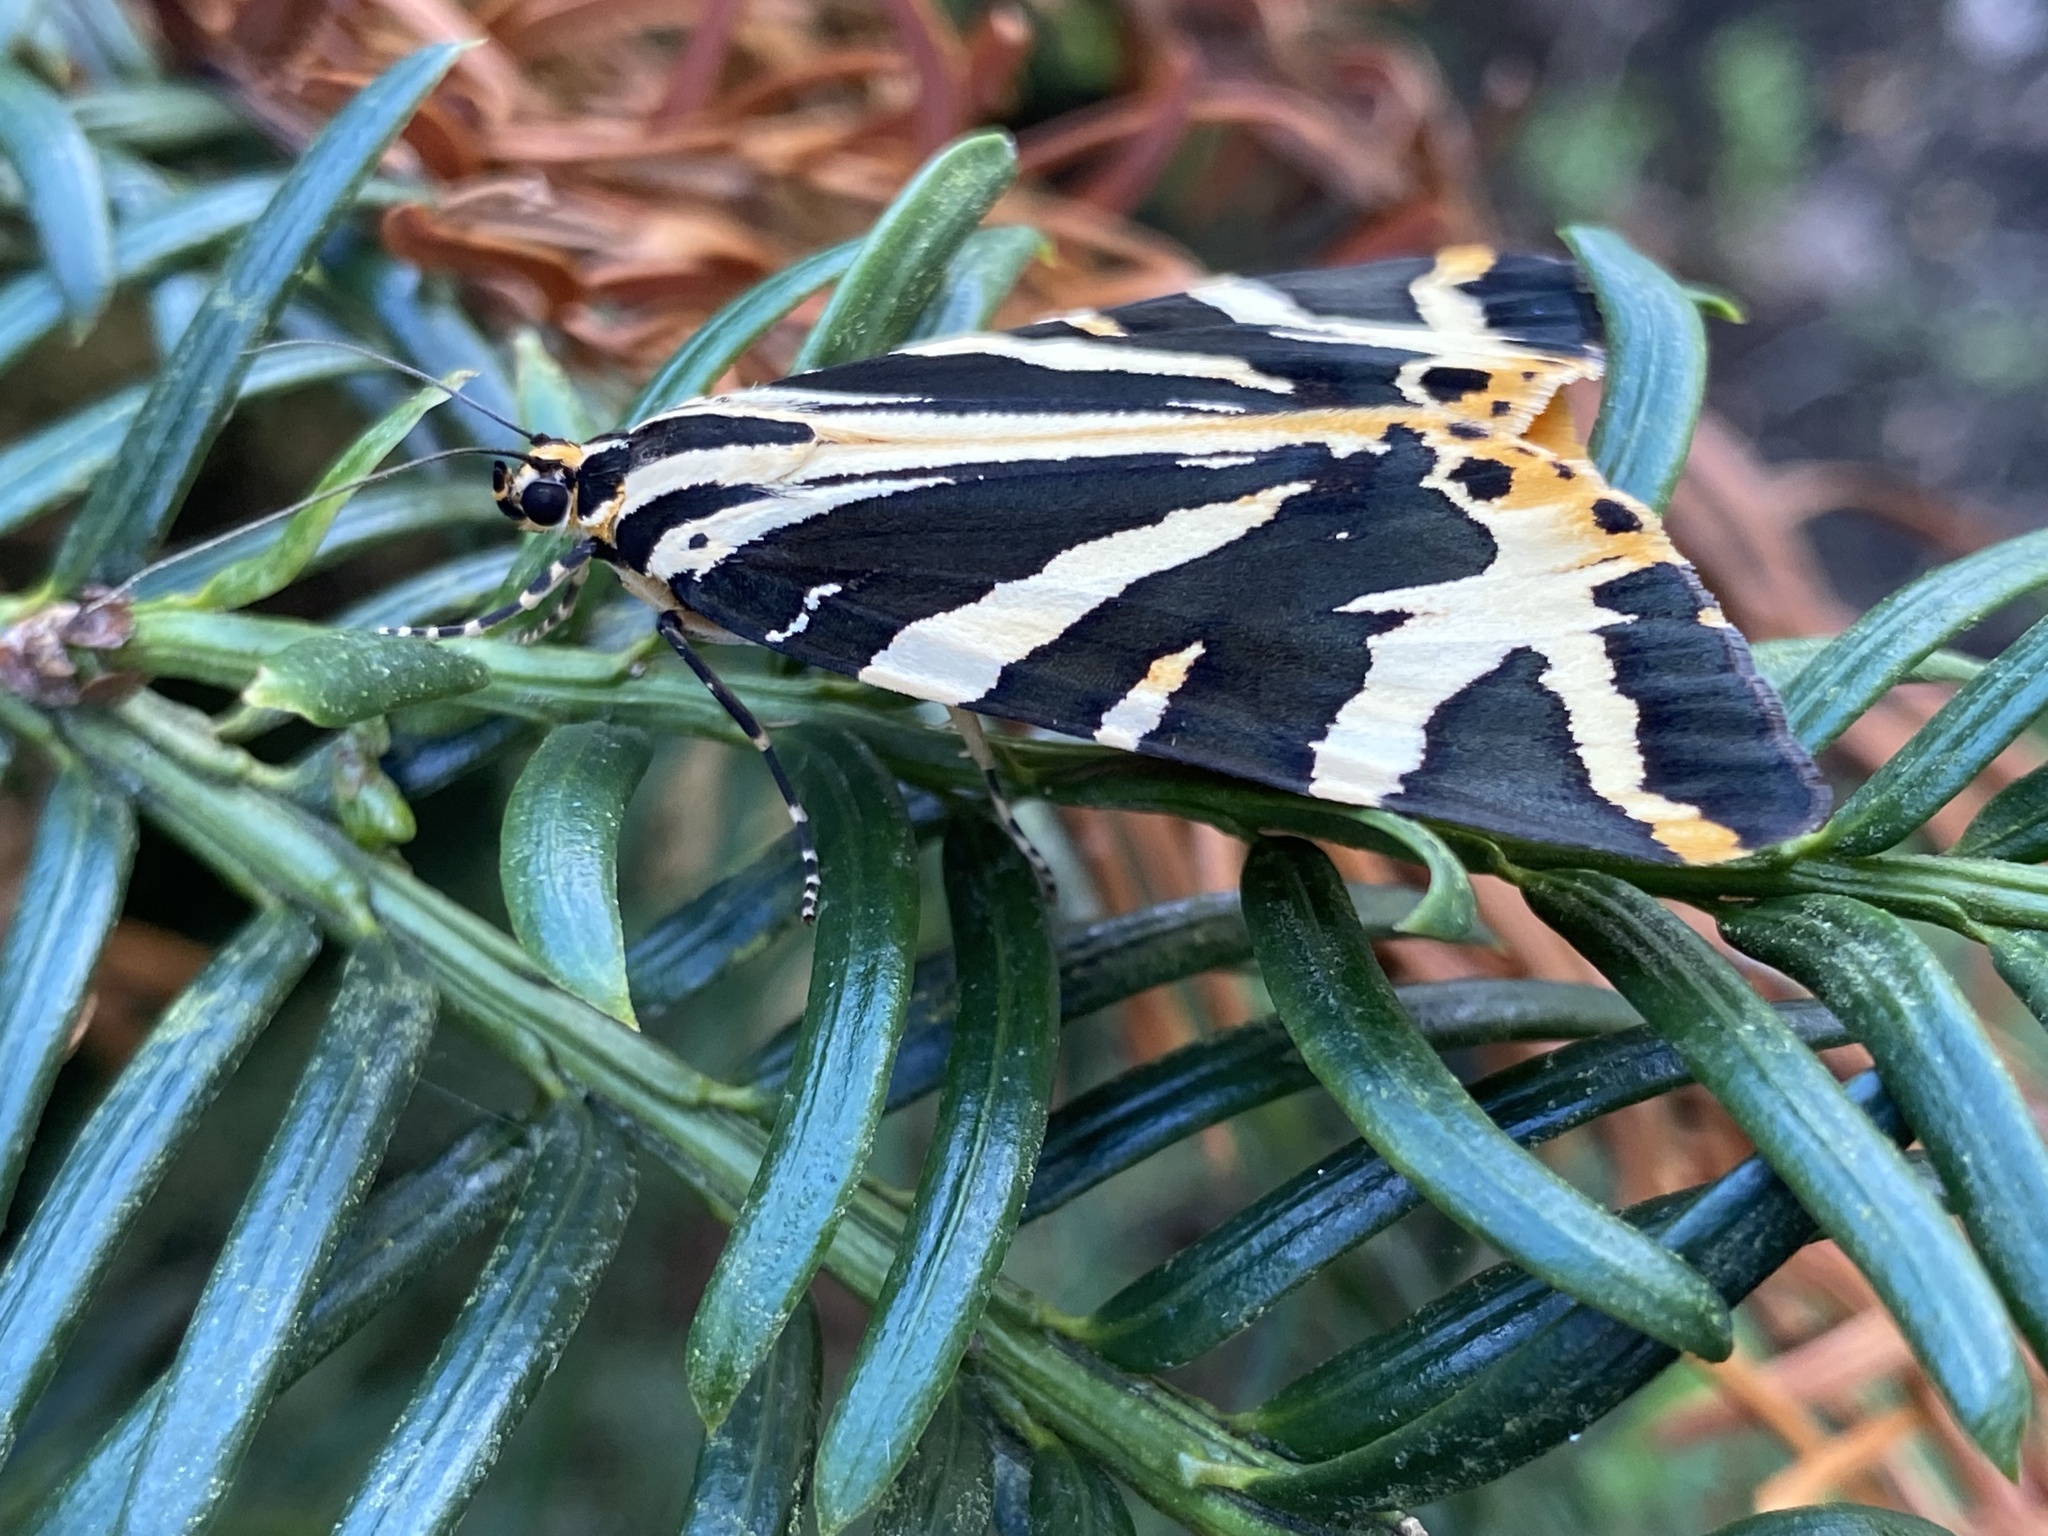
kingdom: Animalia
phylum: Arthropoda
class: Insecta
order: Lepidoptera
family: Erebidae
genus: Euplagia
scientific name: Euplagia quadripunctaria
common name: Jersey tiger
